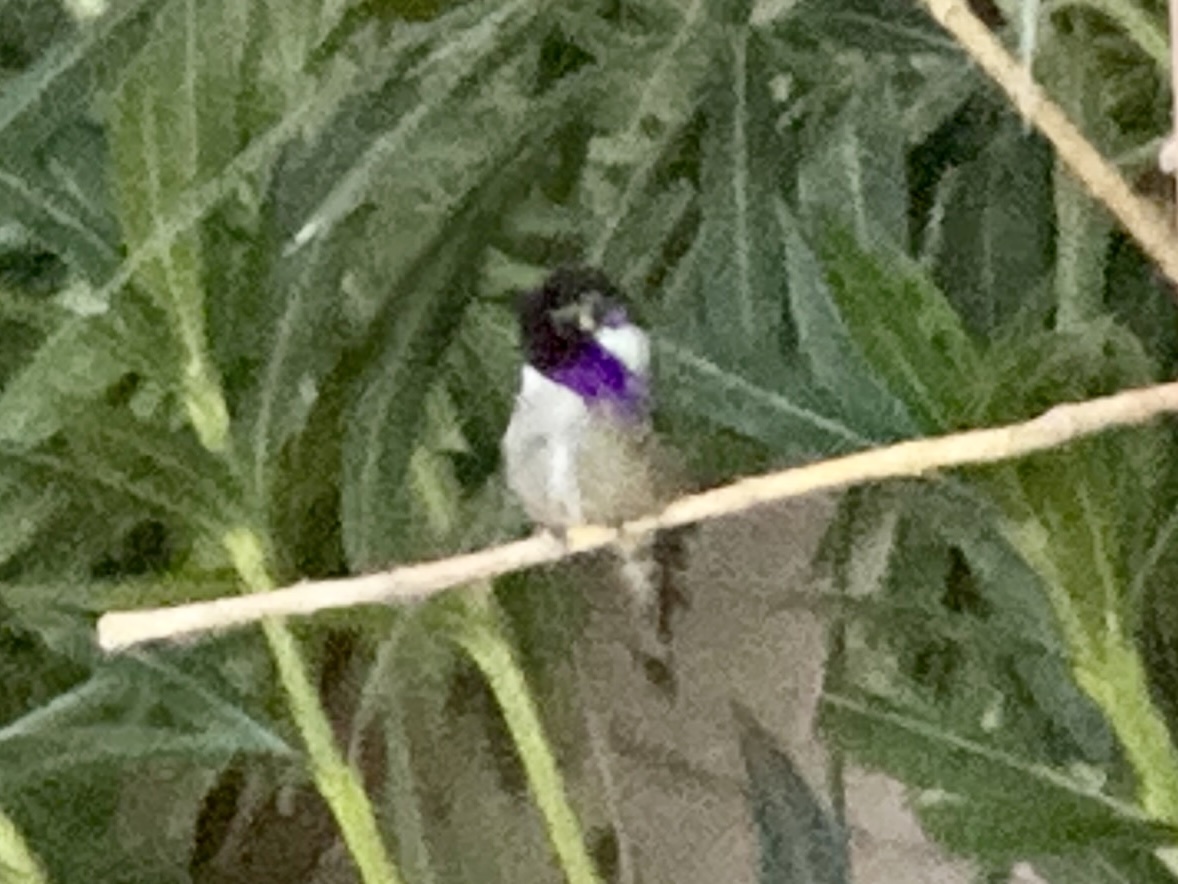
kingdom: Animalia
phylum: Chordata
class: Aves
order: Apodiformes
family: Trochilidae
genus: Calypte
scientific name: Calypte costae
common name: Costa's hummingbird
